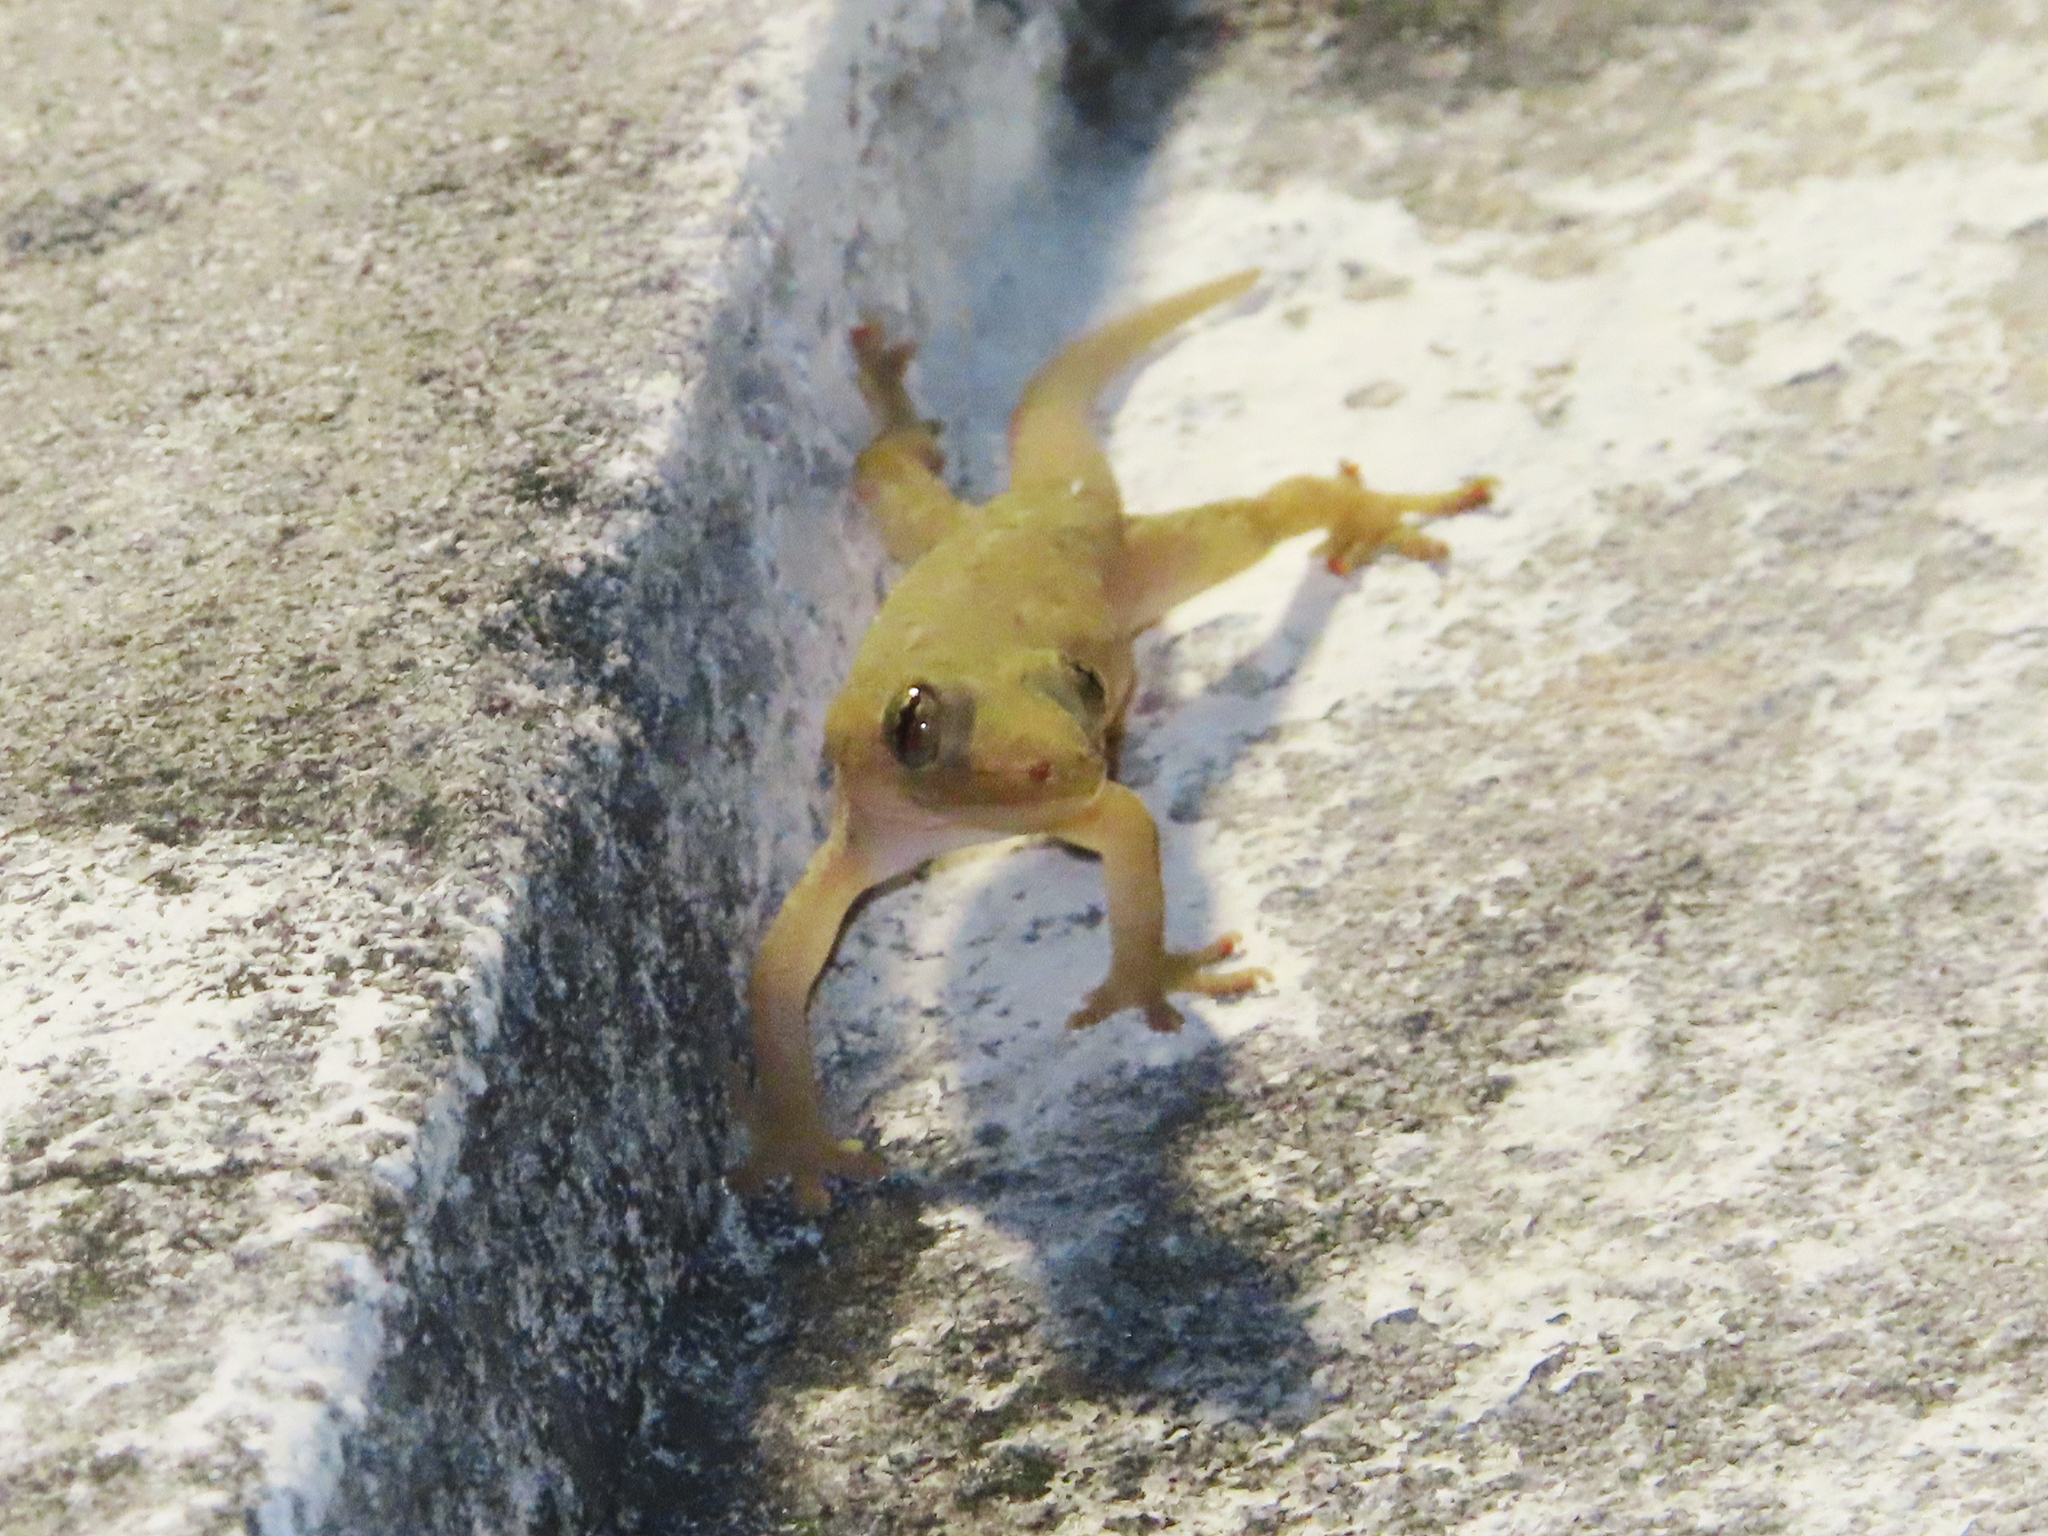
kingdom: Animalia
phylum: Chordata
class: Squamata
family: Gekkonidae
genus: Hemidactylus
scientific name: Hemidactylus frenatus
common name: Common house gecko
